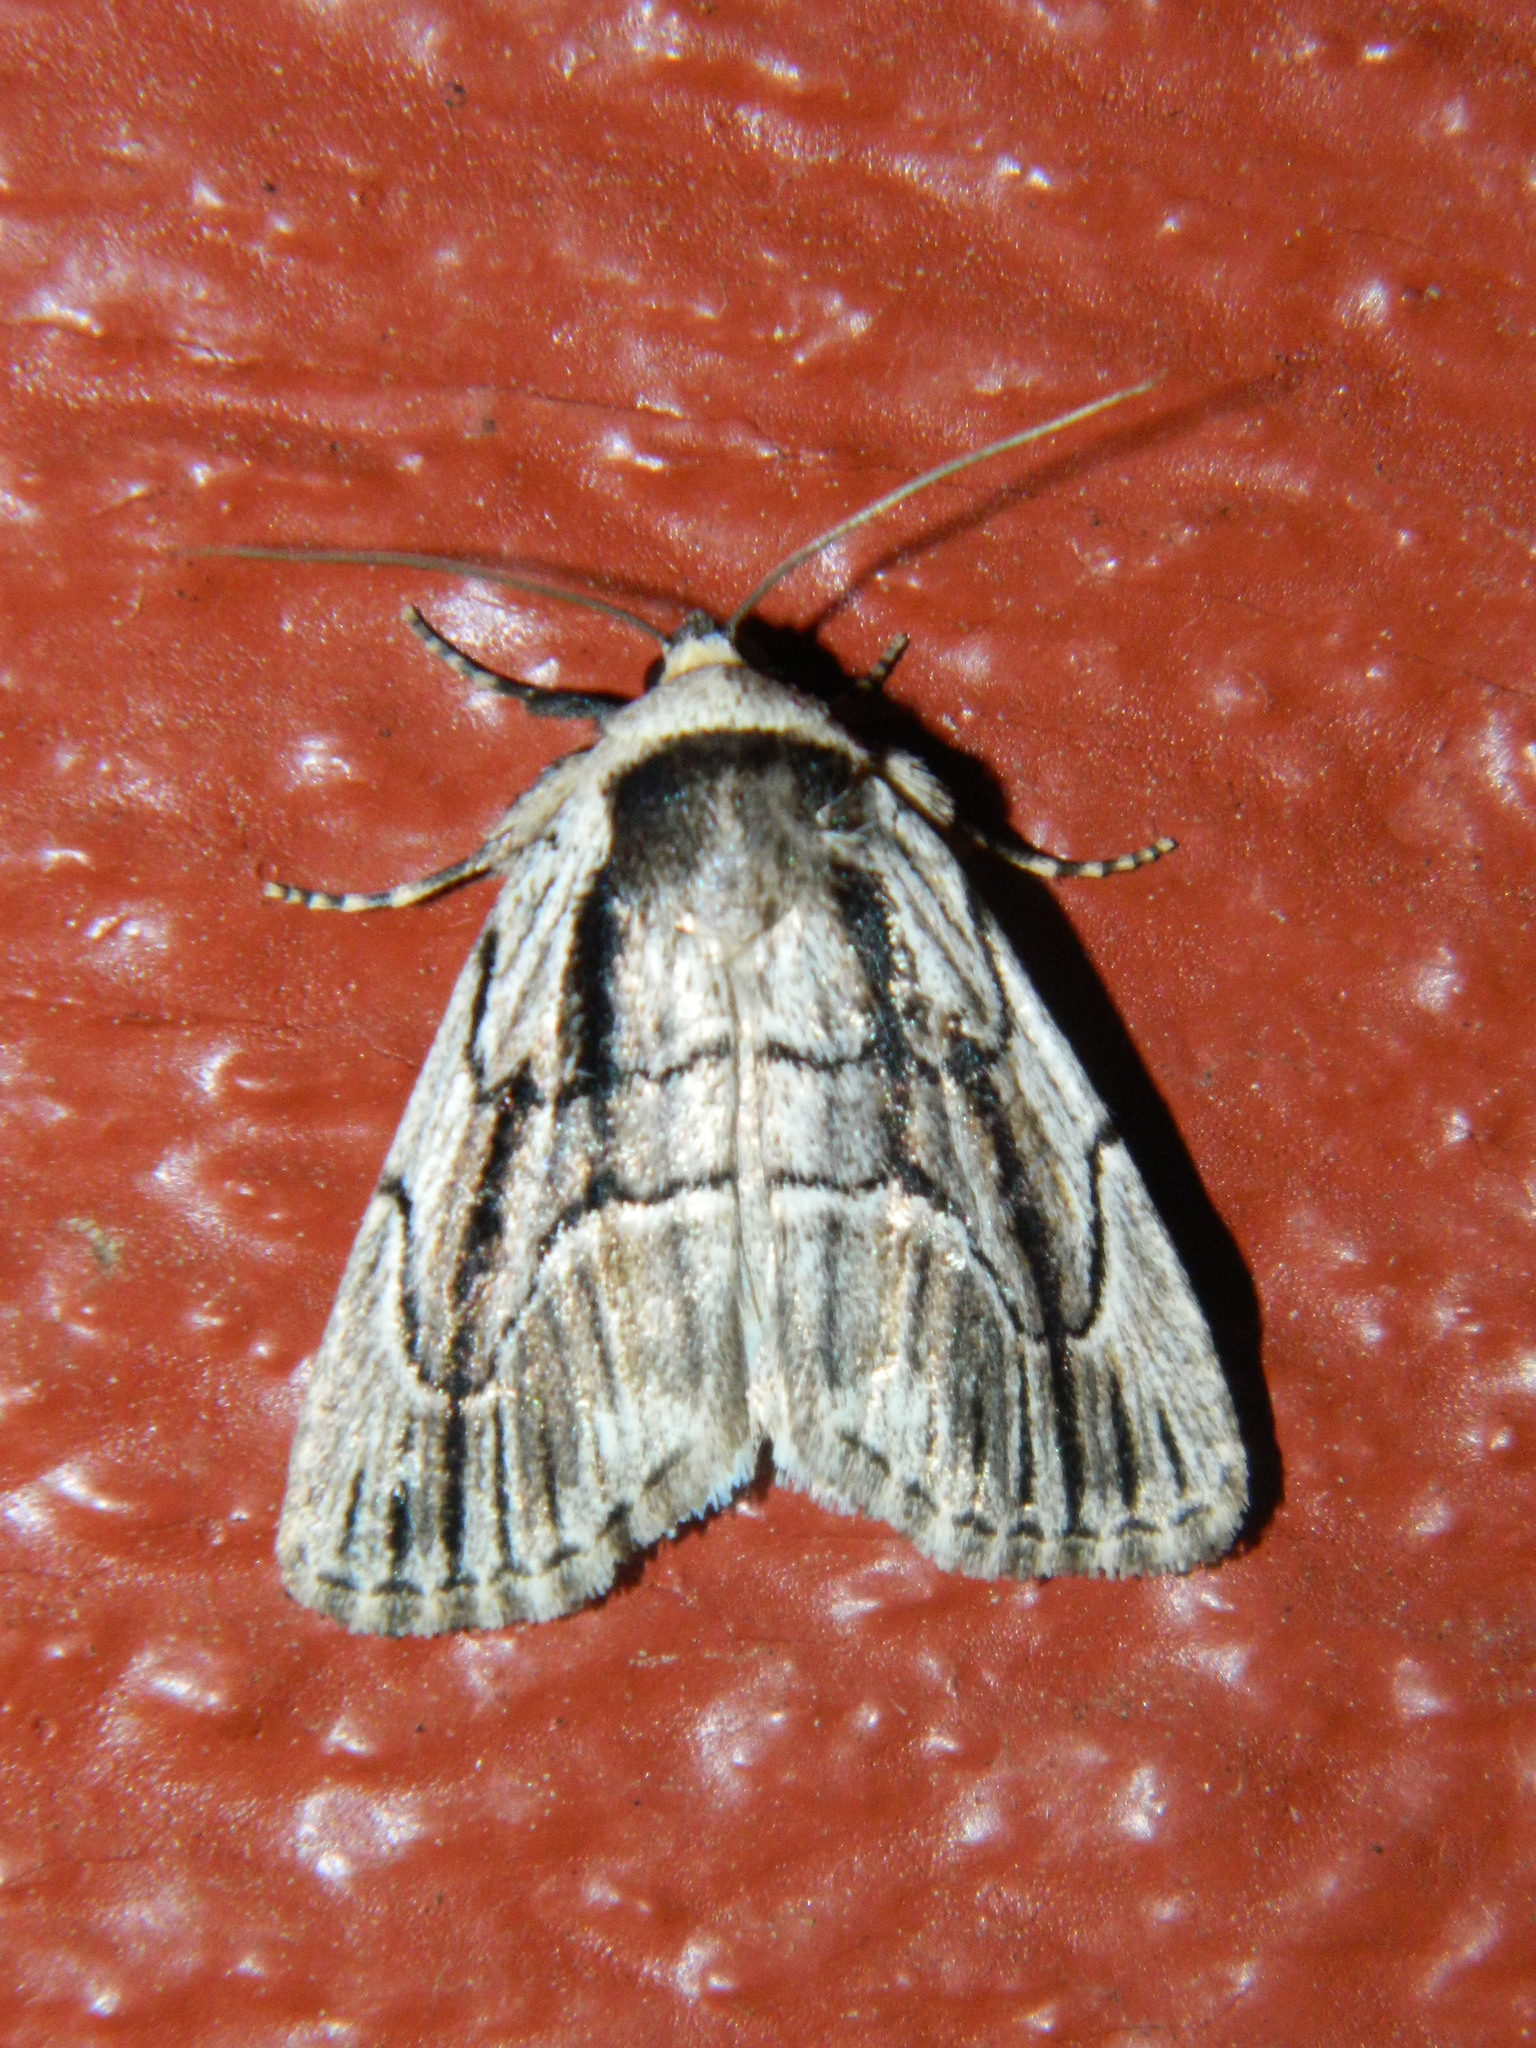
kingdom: Animalia
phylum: Arthropoda
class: Insecta
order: Lepidoptera
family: Noctuidae
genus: Sympistis
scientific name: Sympistis badistriga
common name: Brown-lined sallow moth
